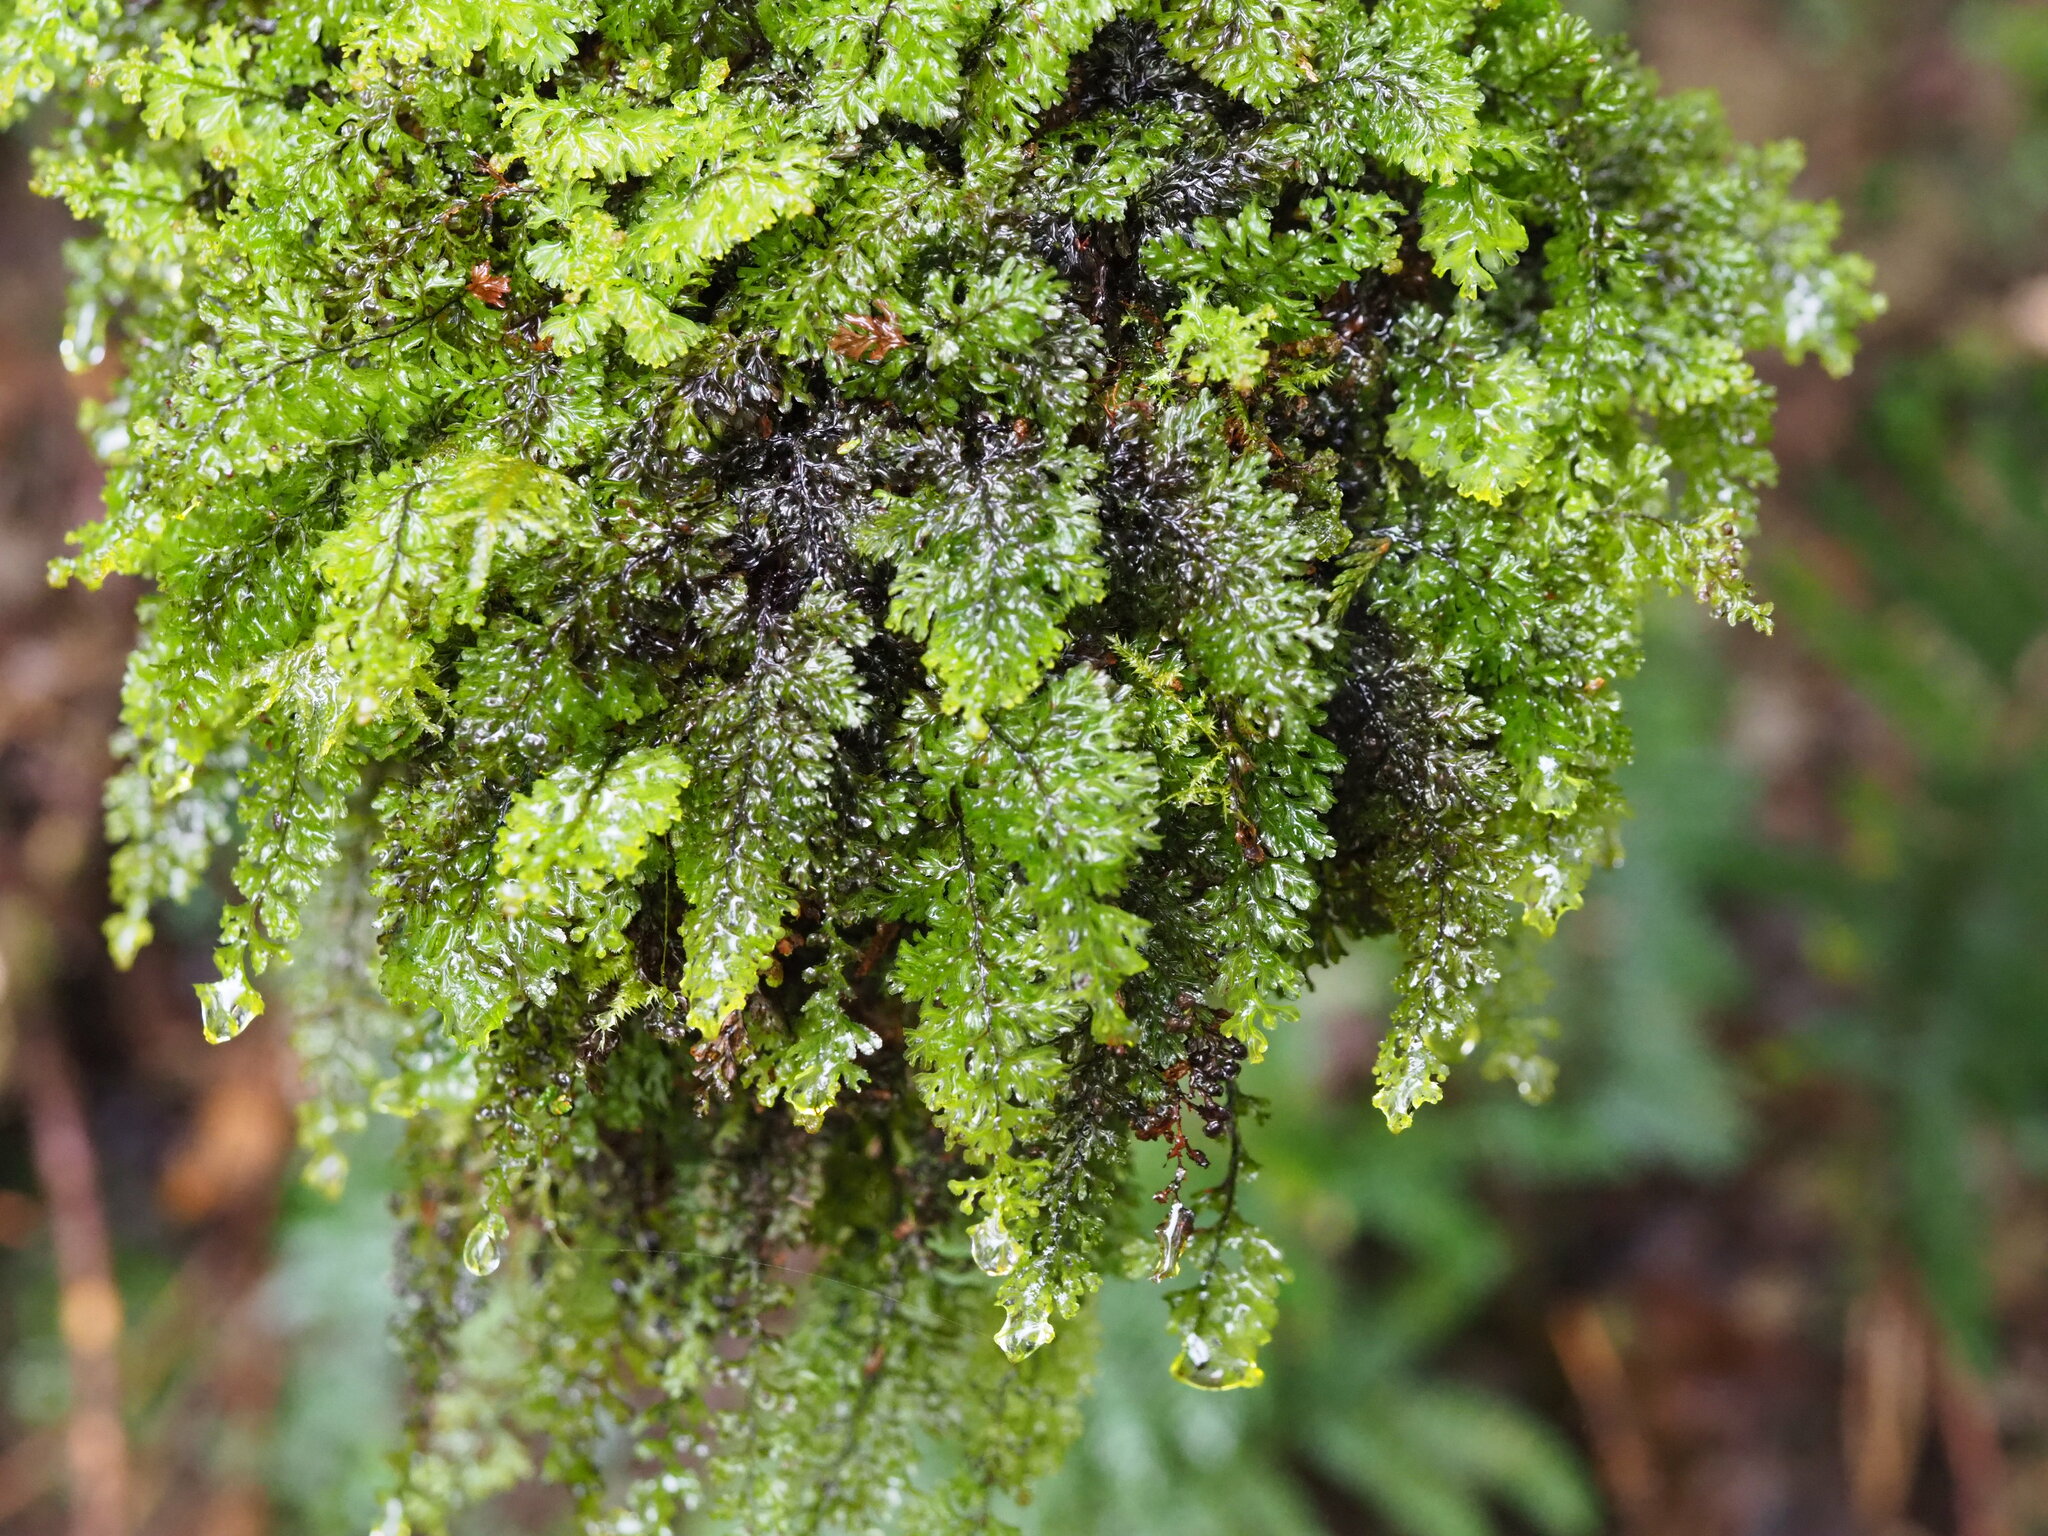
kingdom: Plantae
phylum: Tracheophyta
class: Polypodiopsida
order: Hymenophyllales
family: Hymenophyllaceae
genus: Hymenophyllum
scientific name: Hymenophyllum okadae
